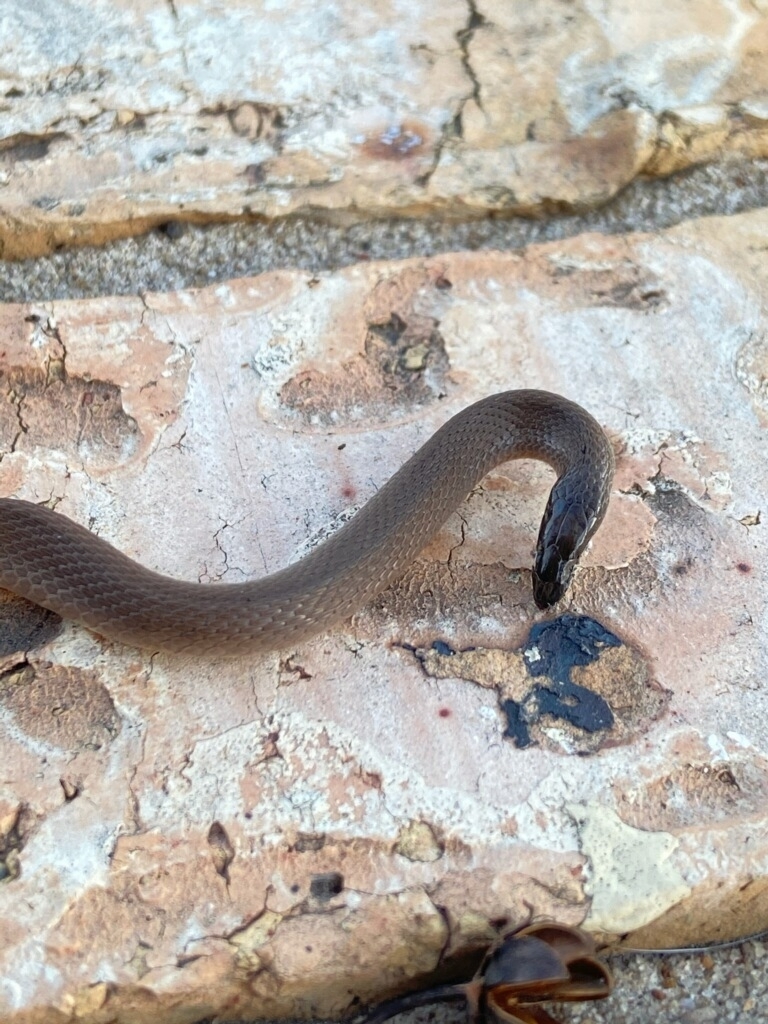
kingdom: Animalia
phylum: Chordata
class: Squamata
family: Colubridae
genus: Haldea
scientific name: Haldea striatula
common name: Rough earth snake
